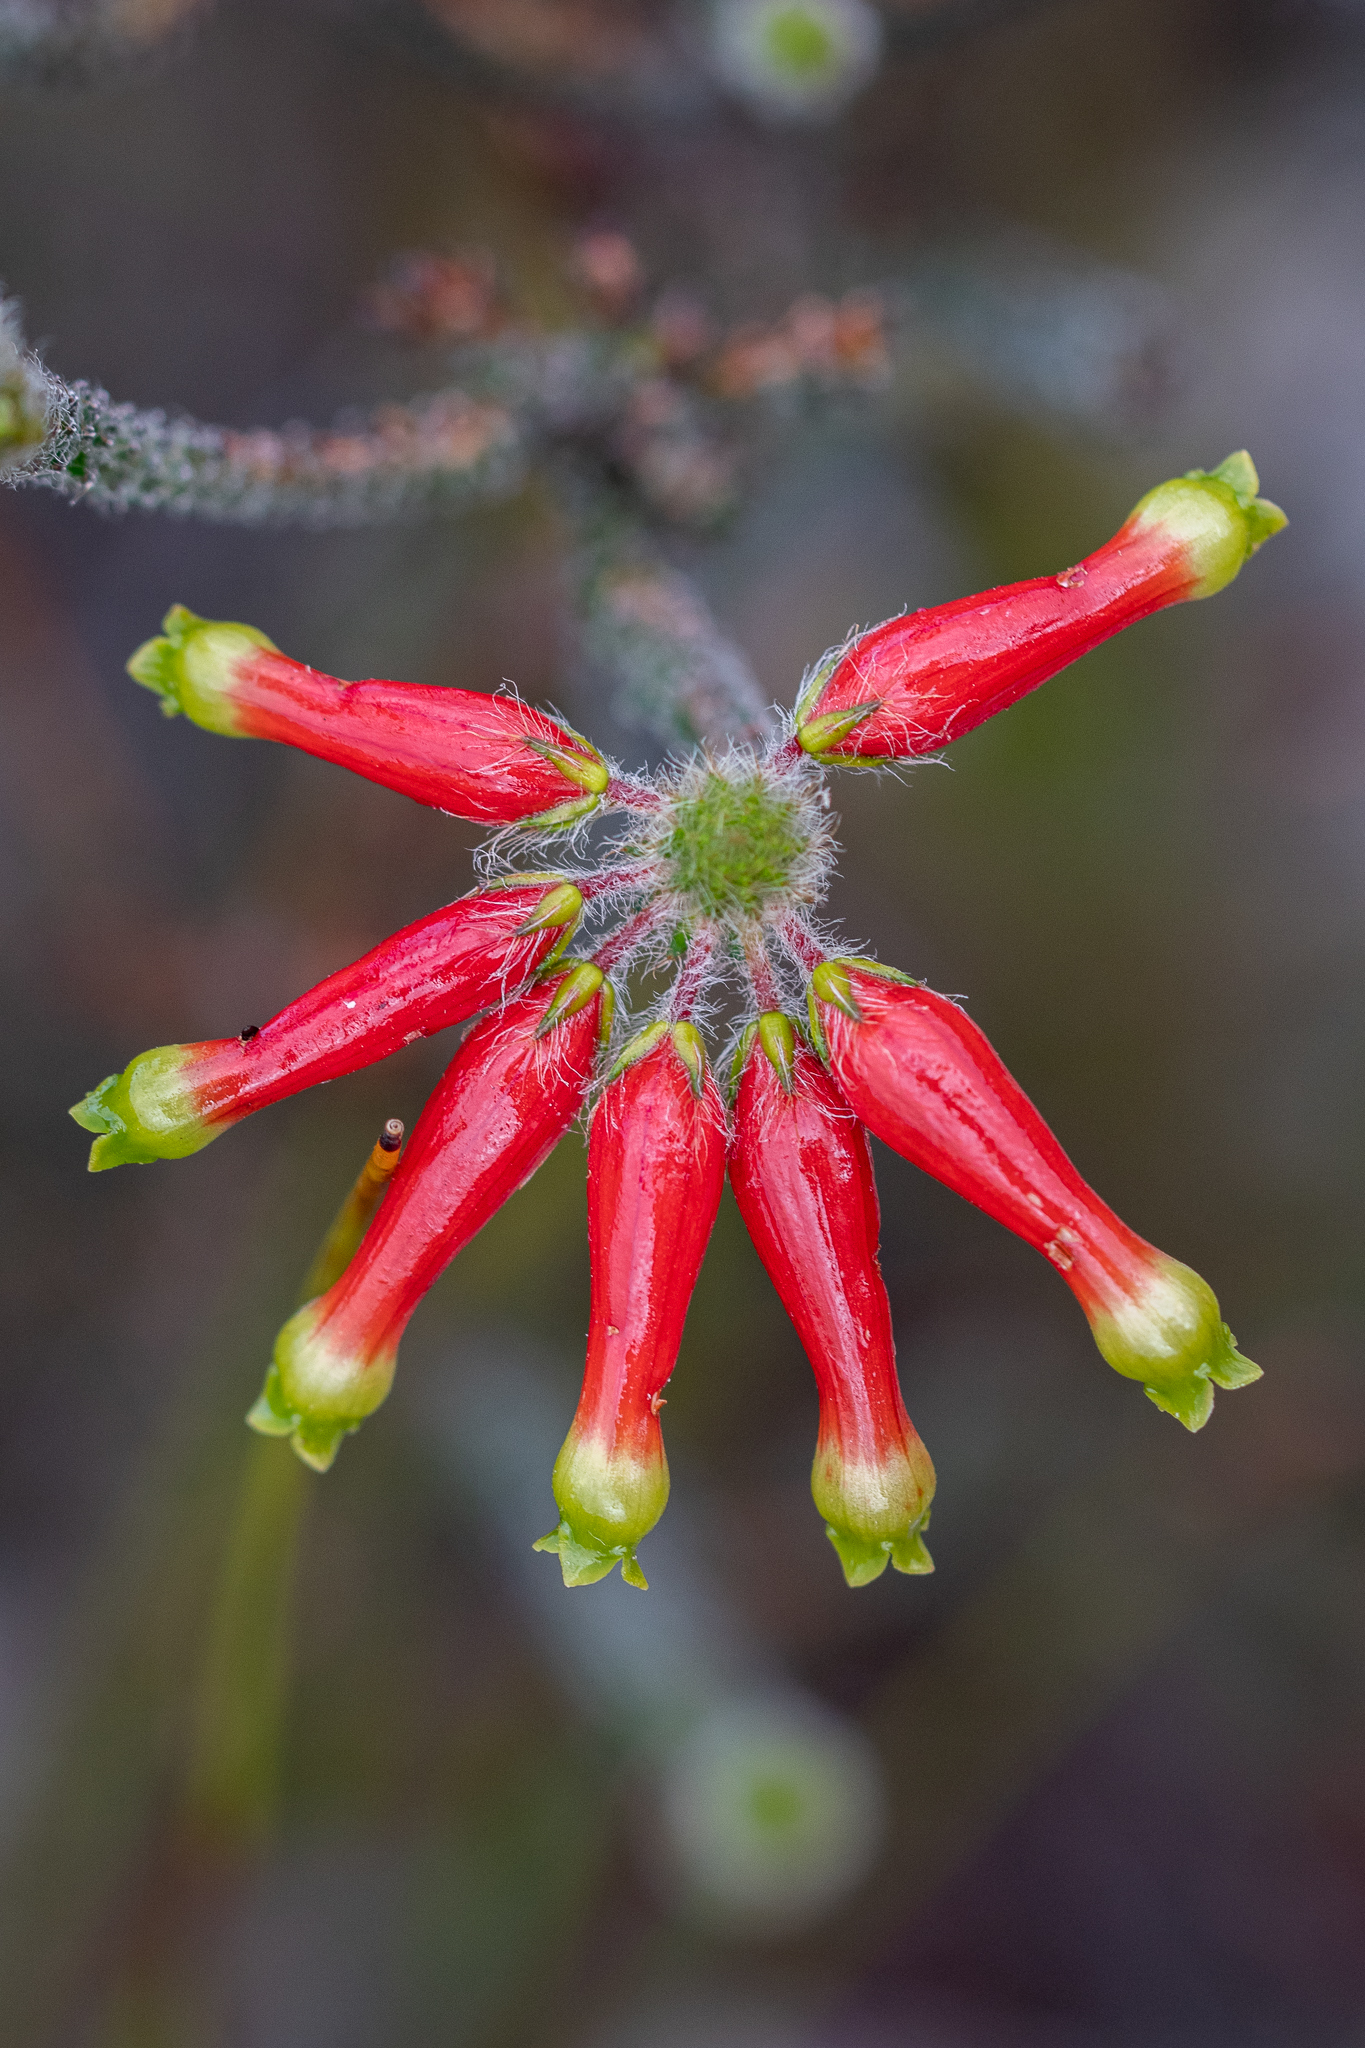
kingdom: Plantae
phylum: Tracheophyta
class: Magnoliopsida
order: Ericales
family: Ericaceae
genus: Erica
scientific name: Erica massonii
